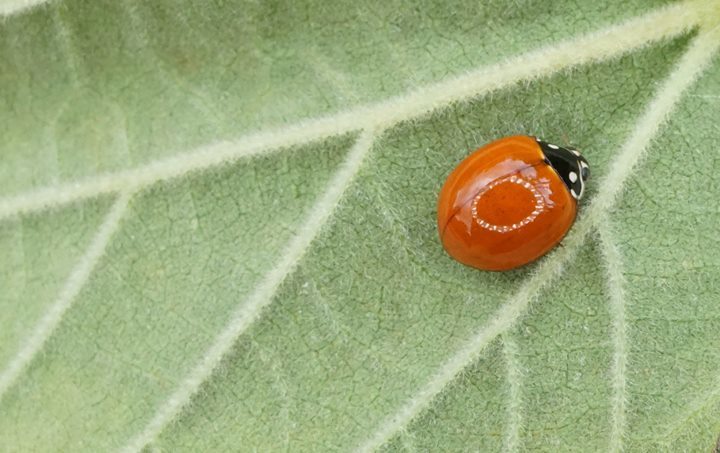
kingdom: Animalia
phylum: Arthropoda
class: Insecta
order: Coleoptera
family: Coccinellidae
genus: Cycloneda
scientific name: Cycloneda sanguinea
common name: Ladybird beetle
